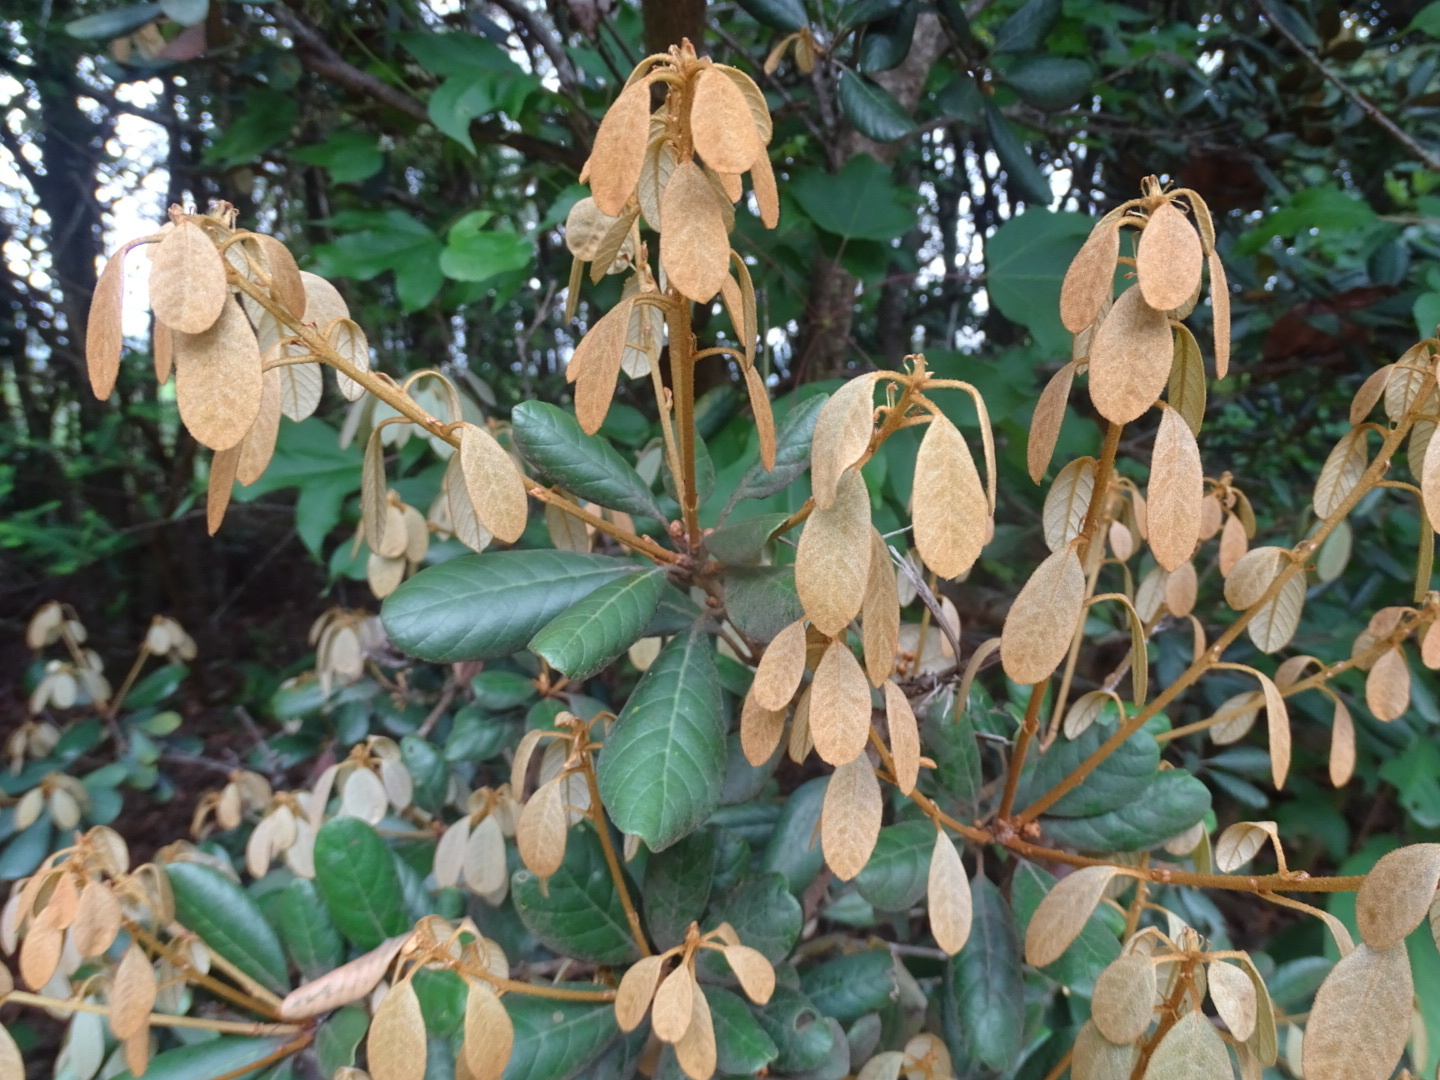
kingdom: Plantae
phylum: Tracheophyta
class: Magnoliopsida
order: Fagales
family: Fagaceae
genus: Quercus
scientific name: Quercus championii
